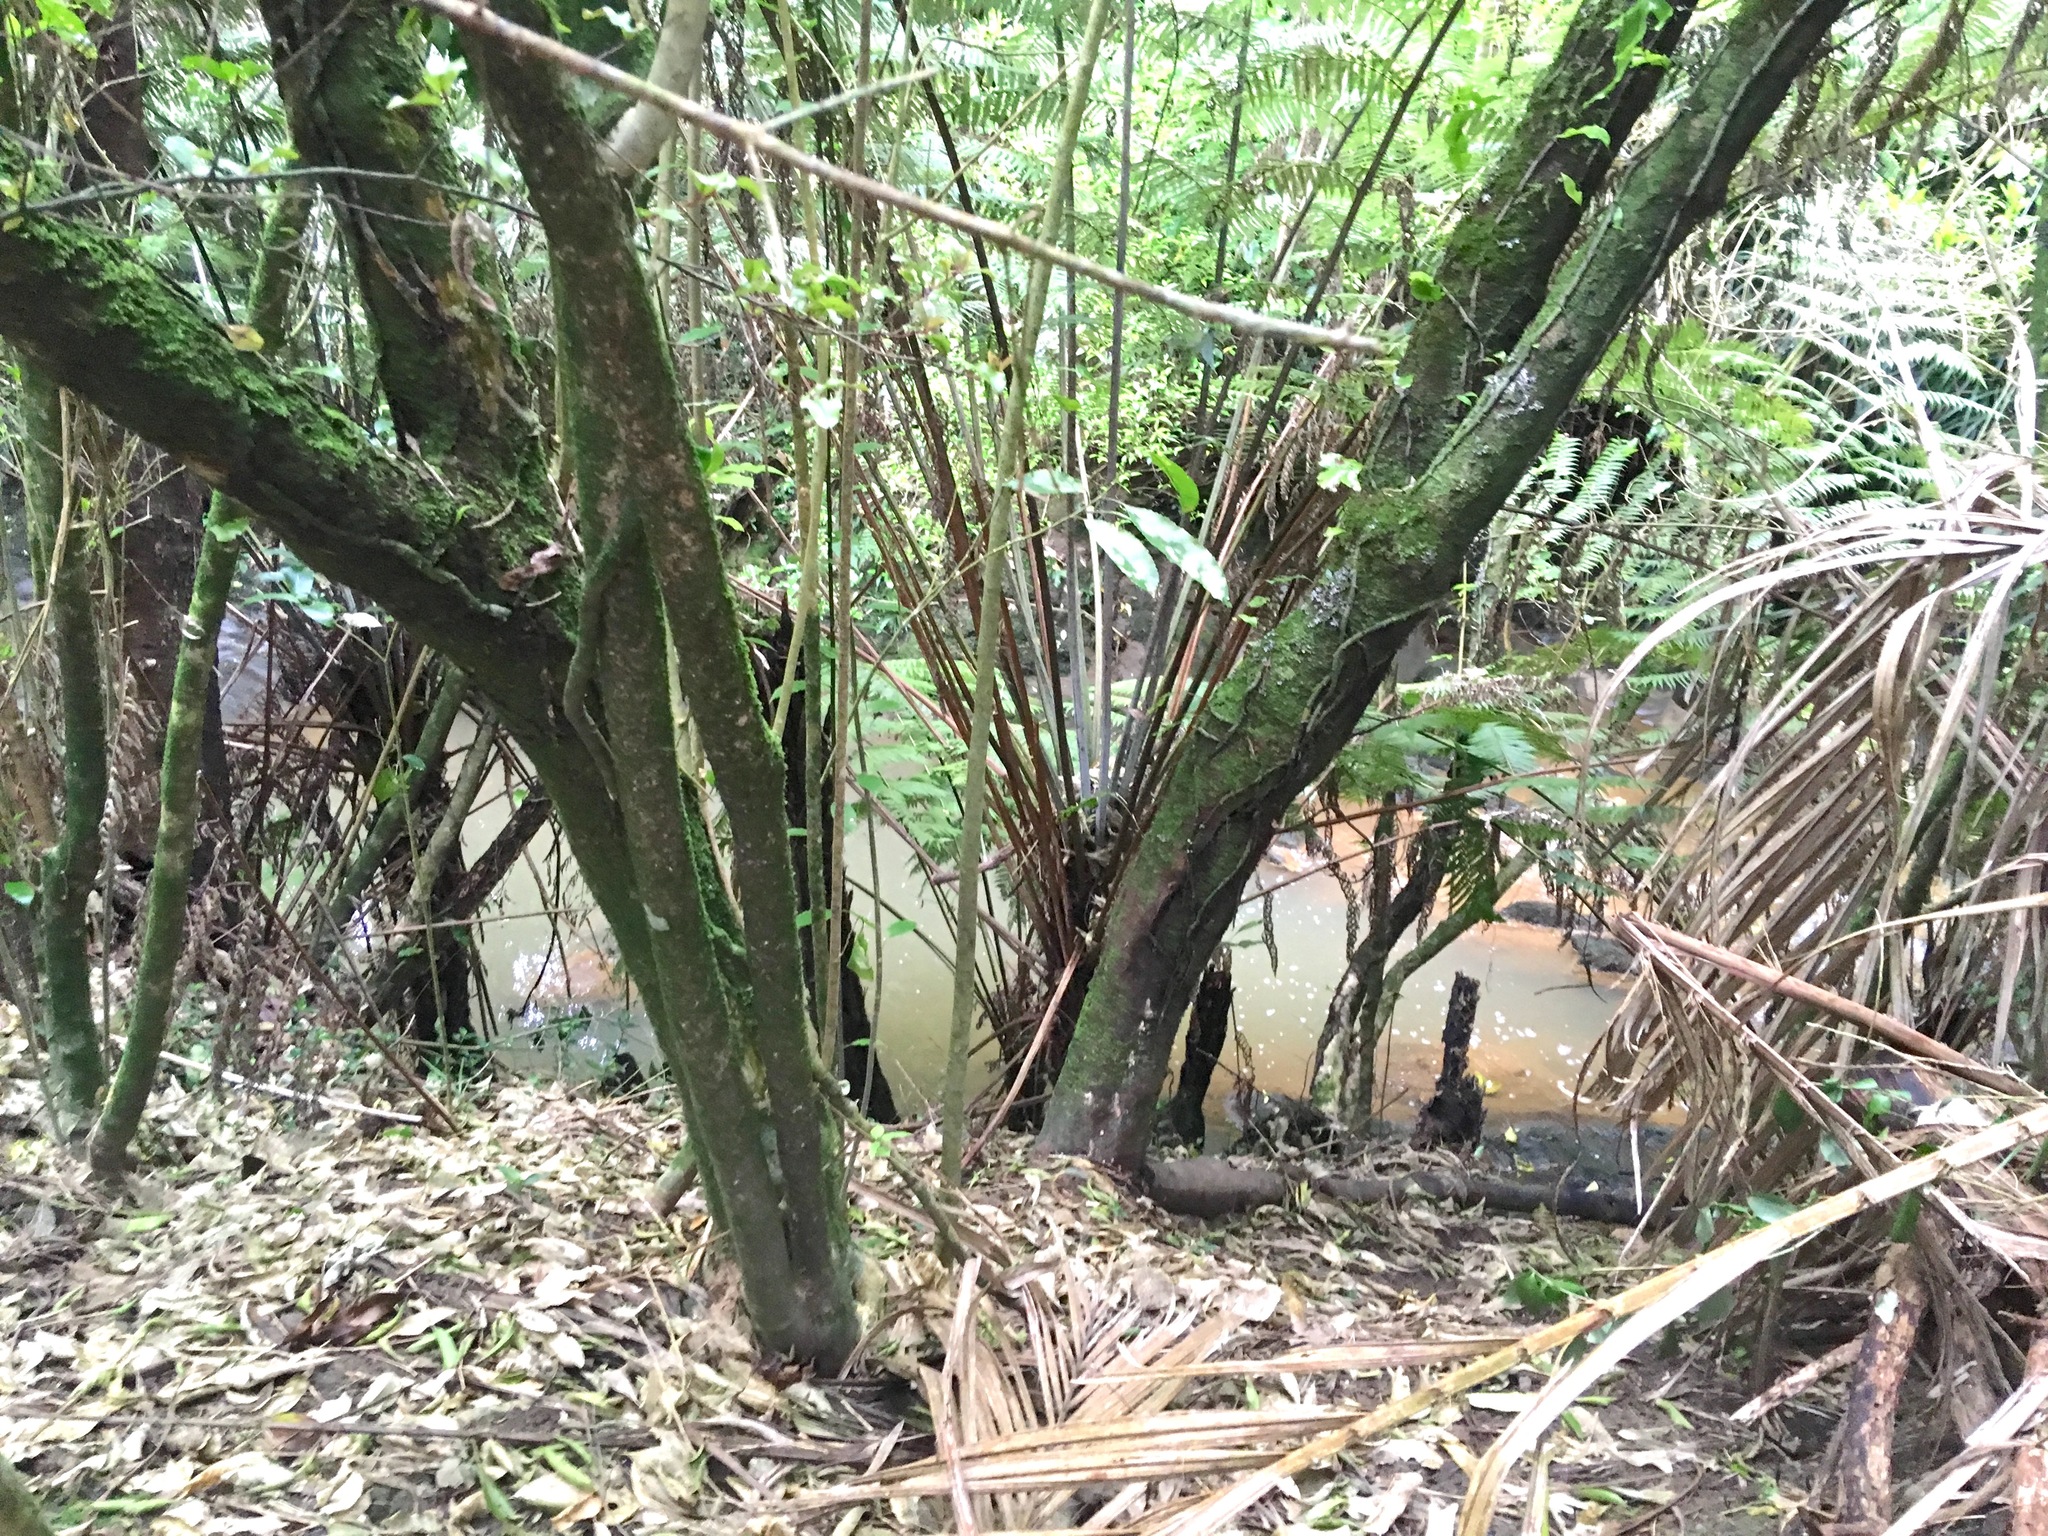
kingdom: Plantae
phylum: Tracheophyta
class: Polypodiopsida
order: Polypodiales
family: Polypodiaceae
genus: Lecanopteris
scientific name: Lecanopteris pustulata
